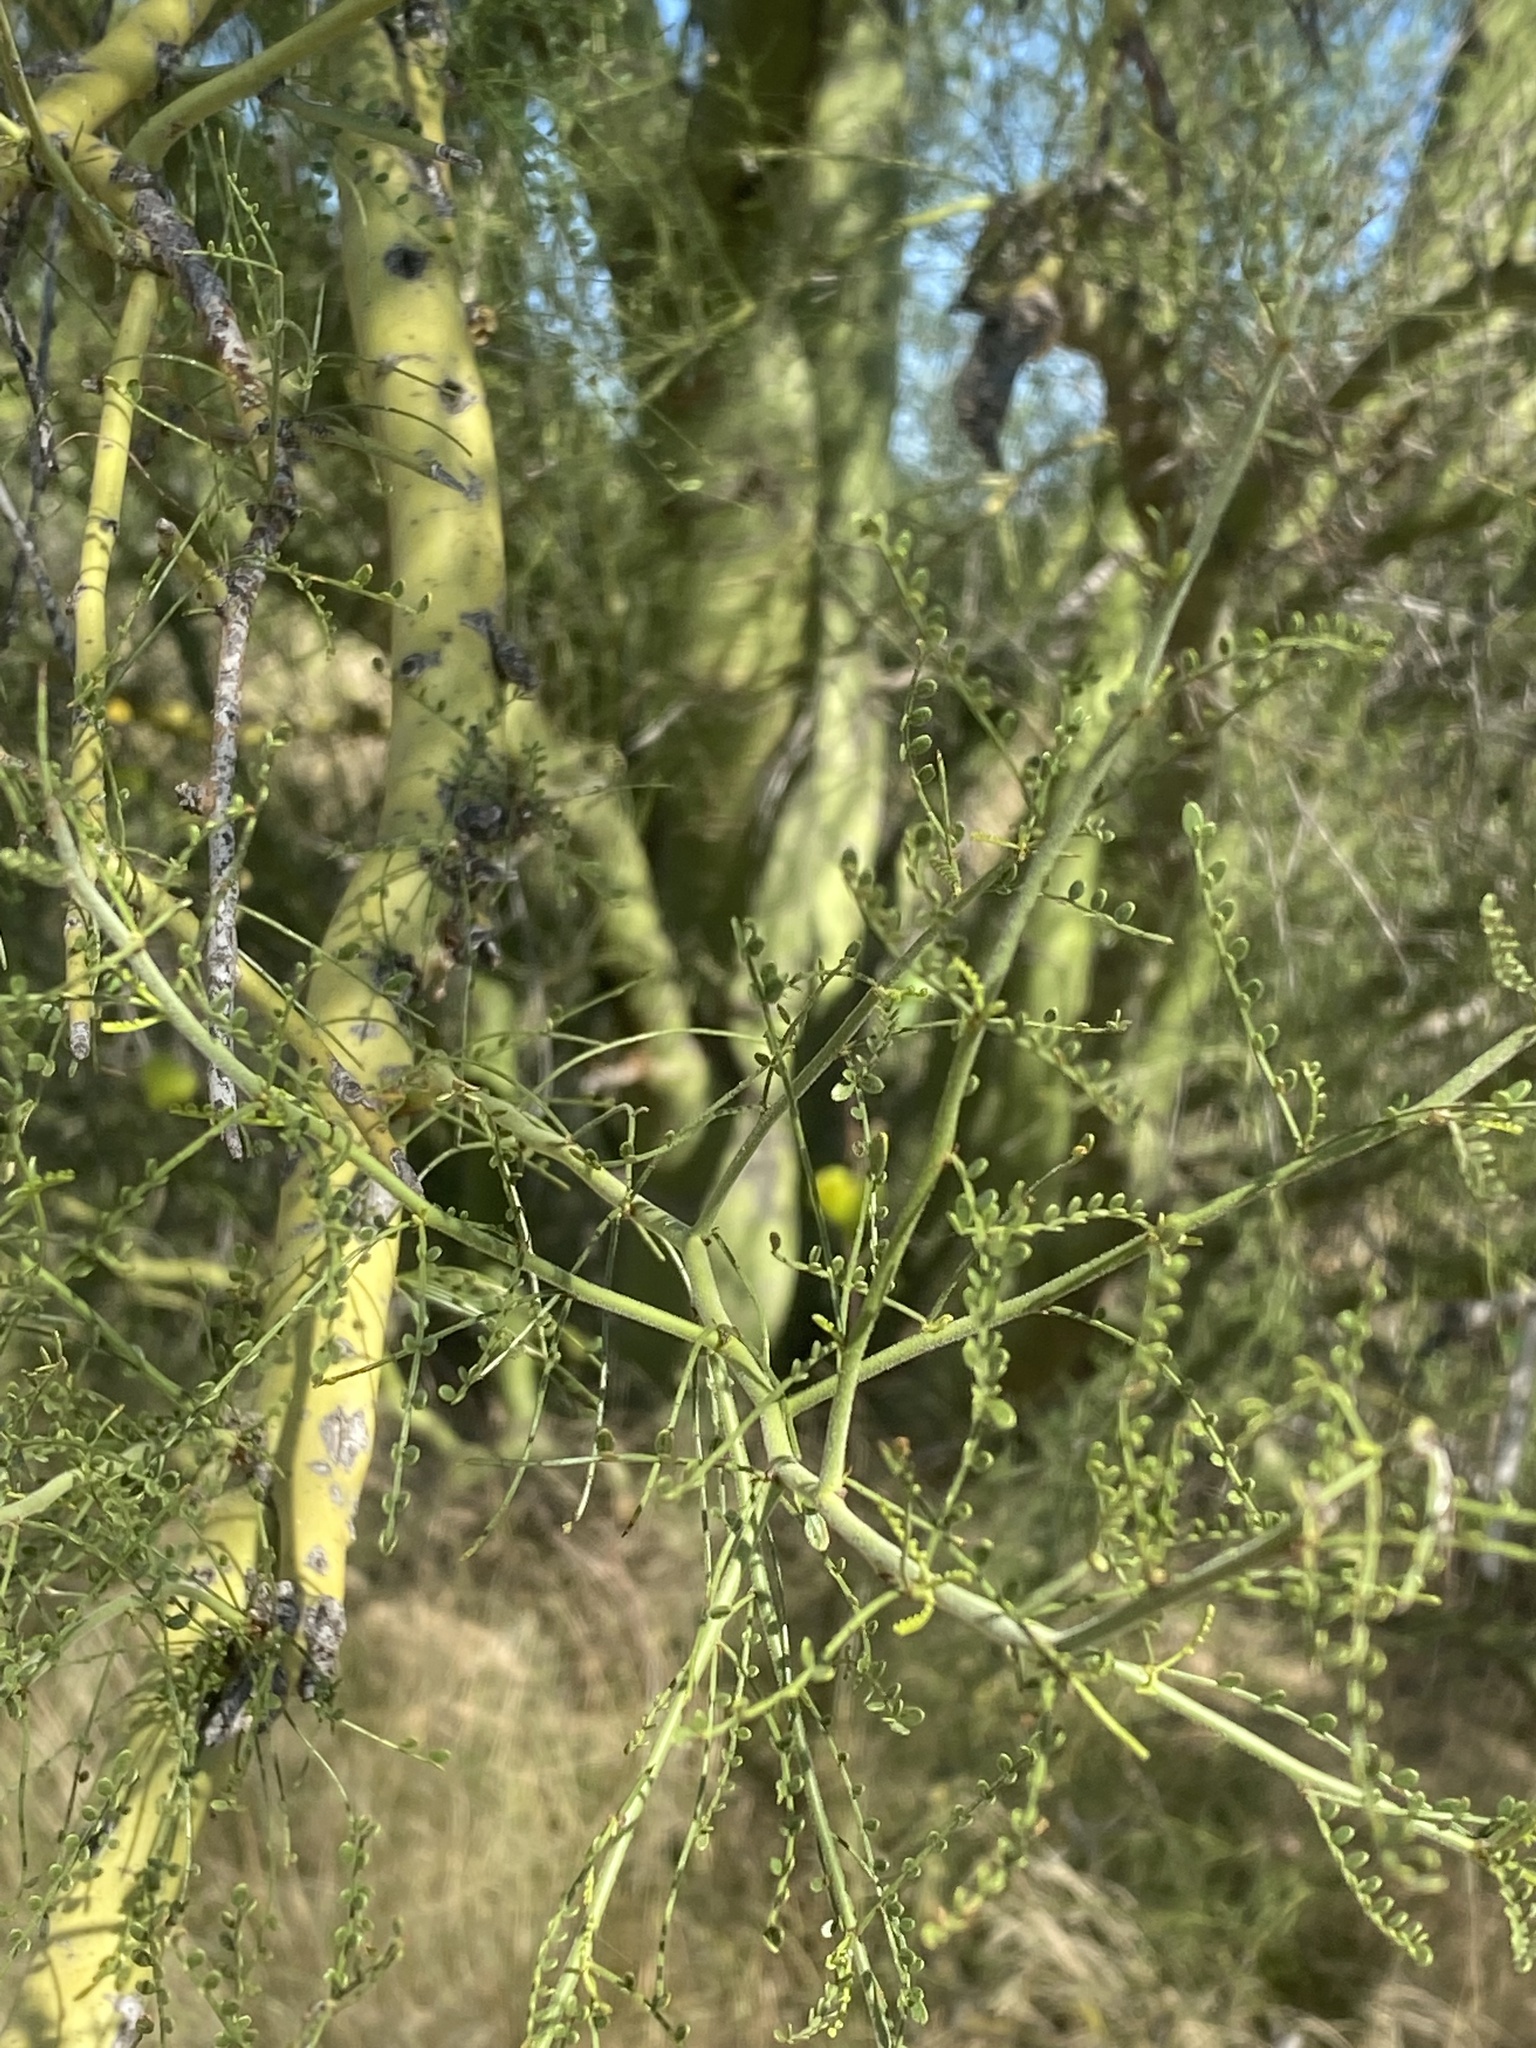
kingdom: Plantae
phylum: Tracheophyta
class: Magnoliopsida
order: Fabales
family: Fabaceae
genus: Parkinsonia
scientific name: Parkinsonia microphylla
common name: Yellow paloverde
